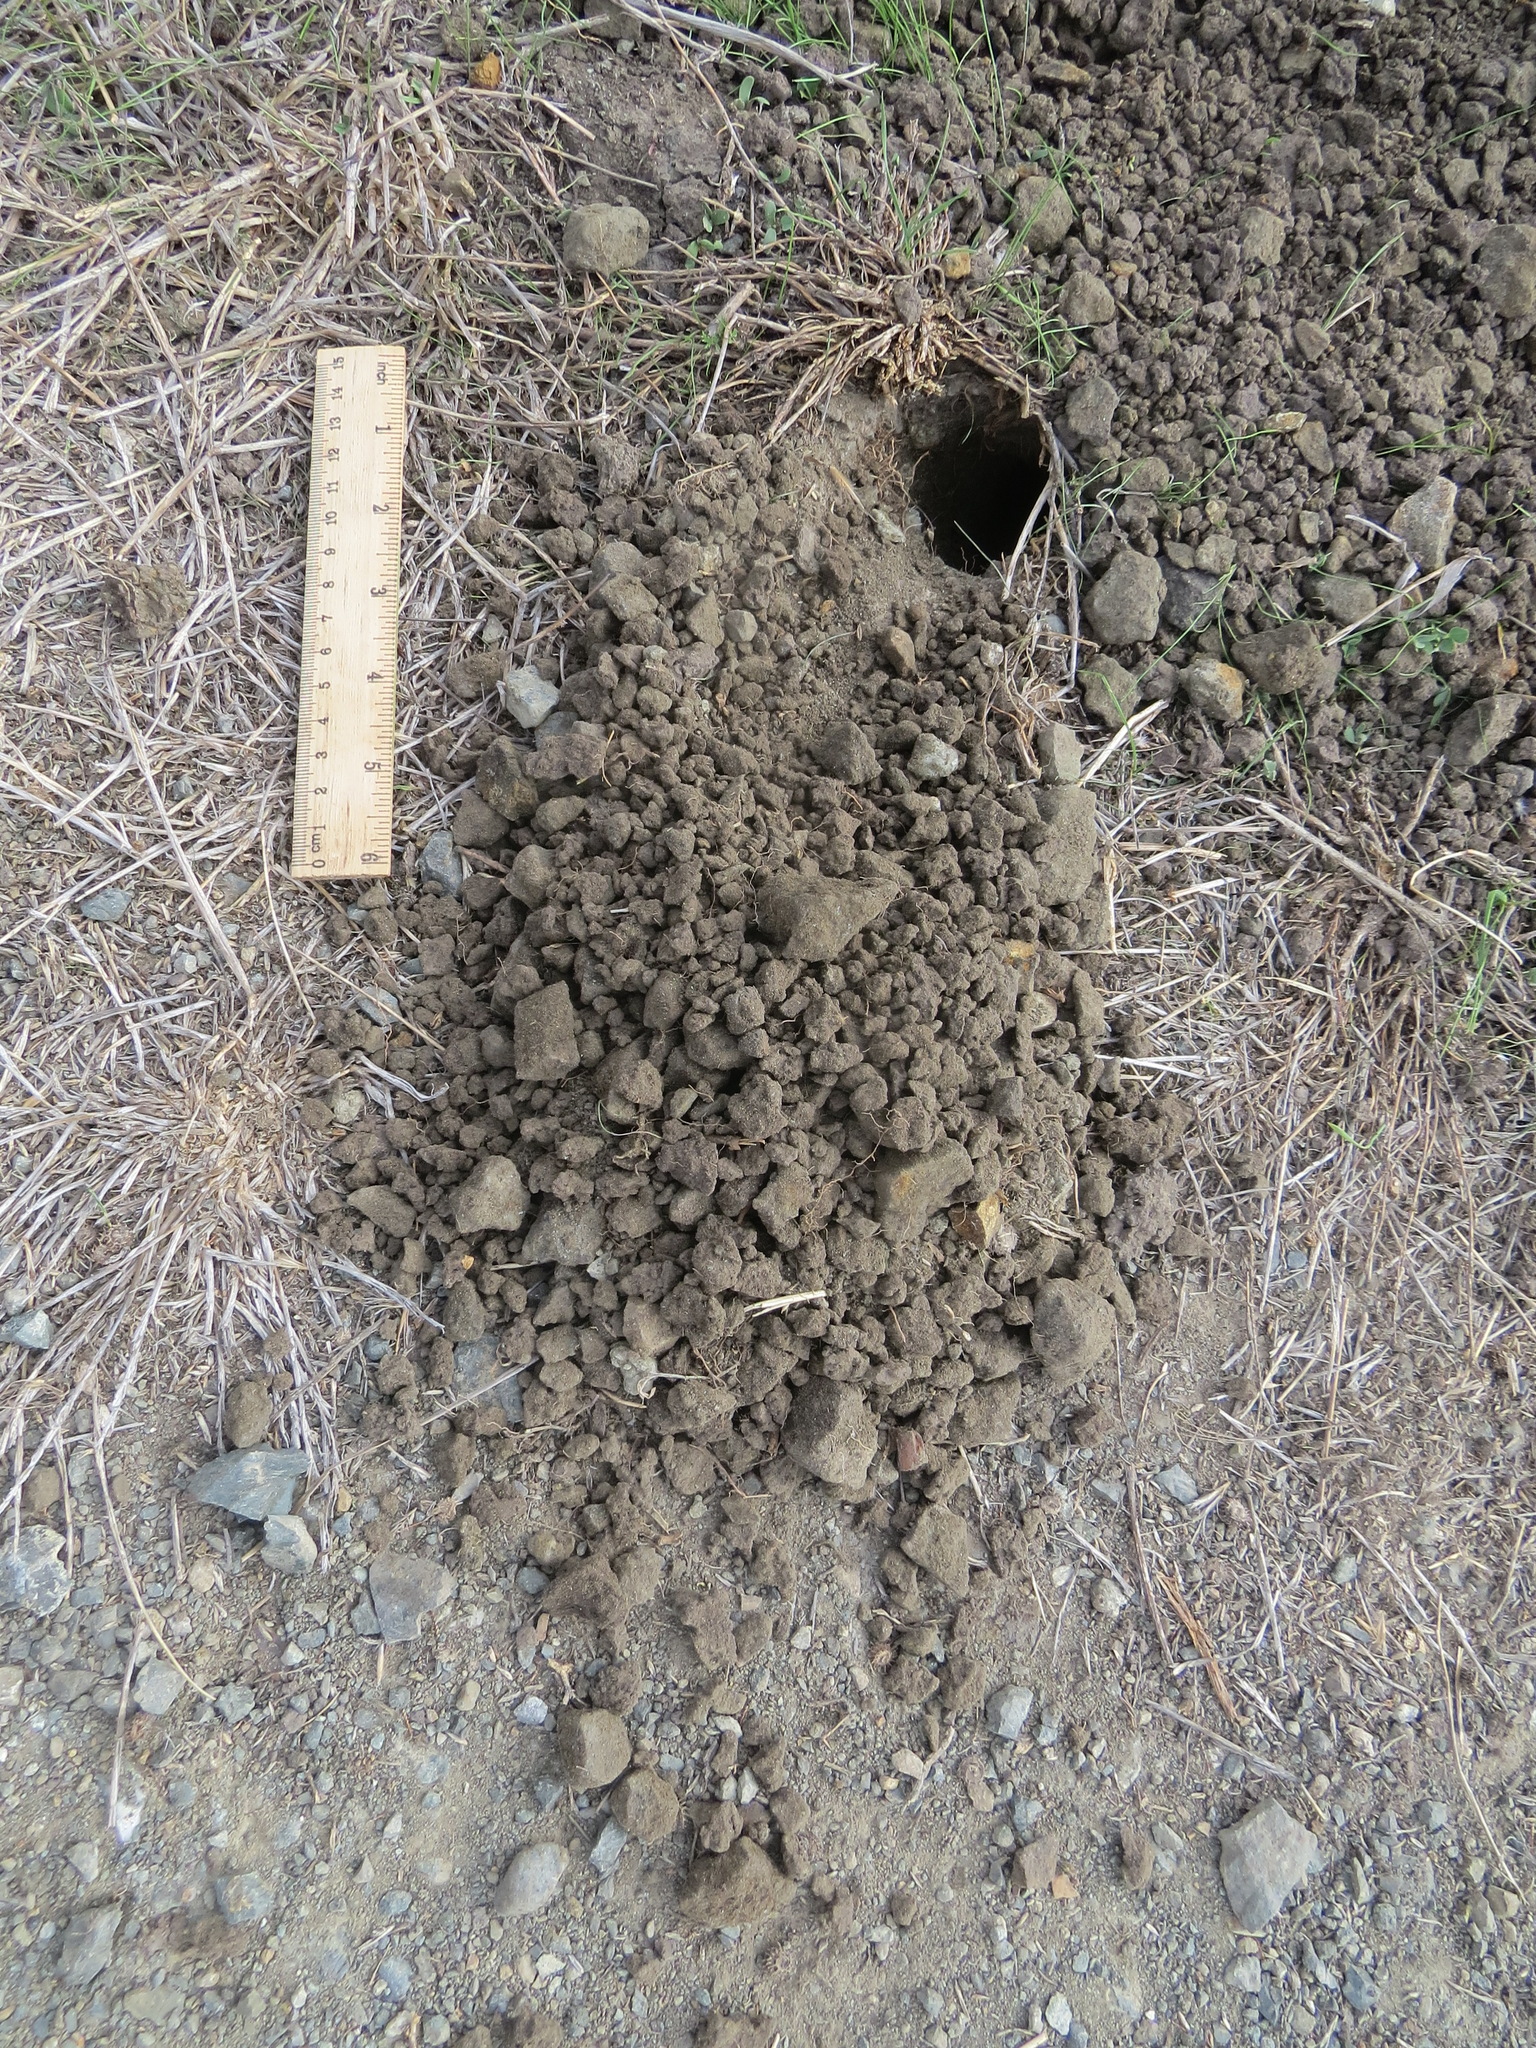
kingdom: Animalia
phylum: Chordata
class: Mammalia
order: Rodentia
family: Geomyidae
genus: Thomomys
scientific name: Thomomys bottae
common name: Botta's pocket gopher
